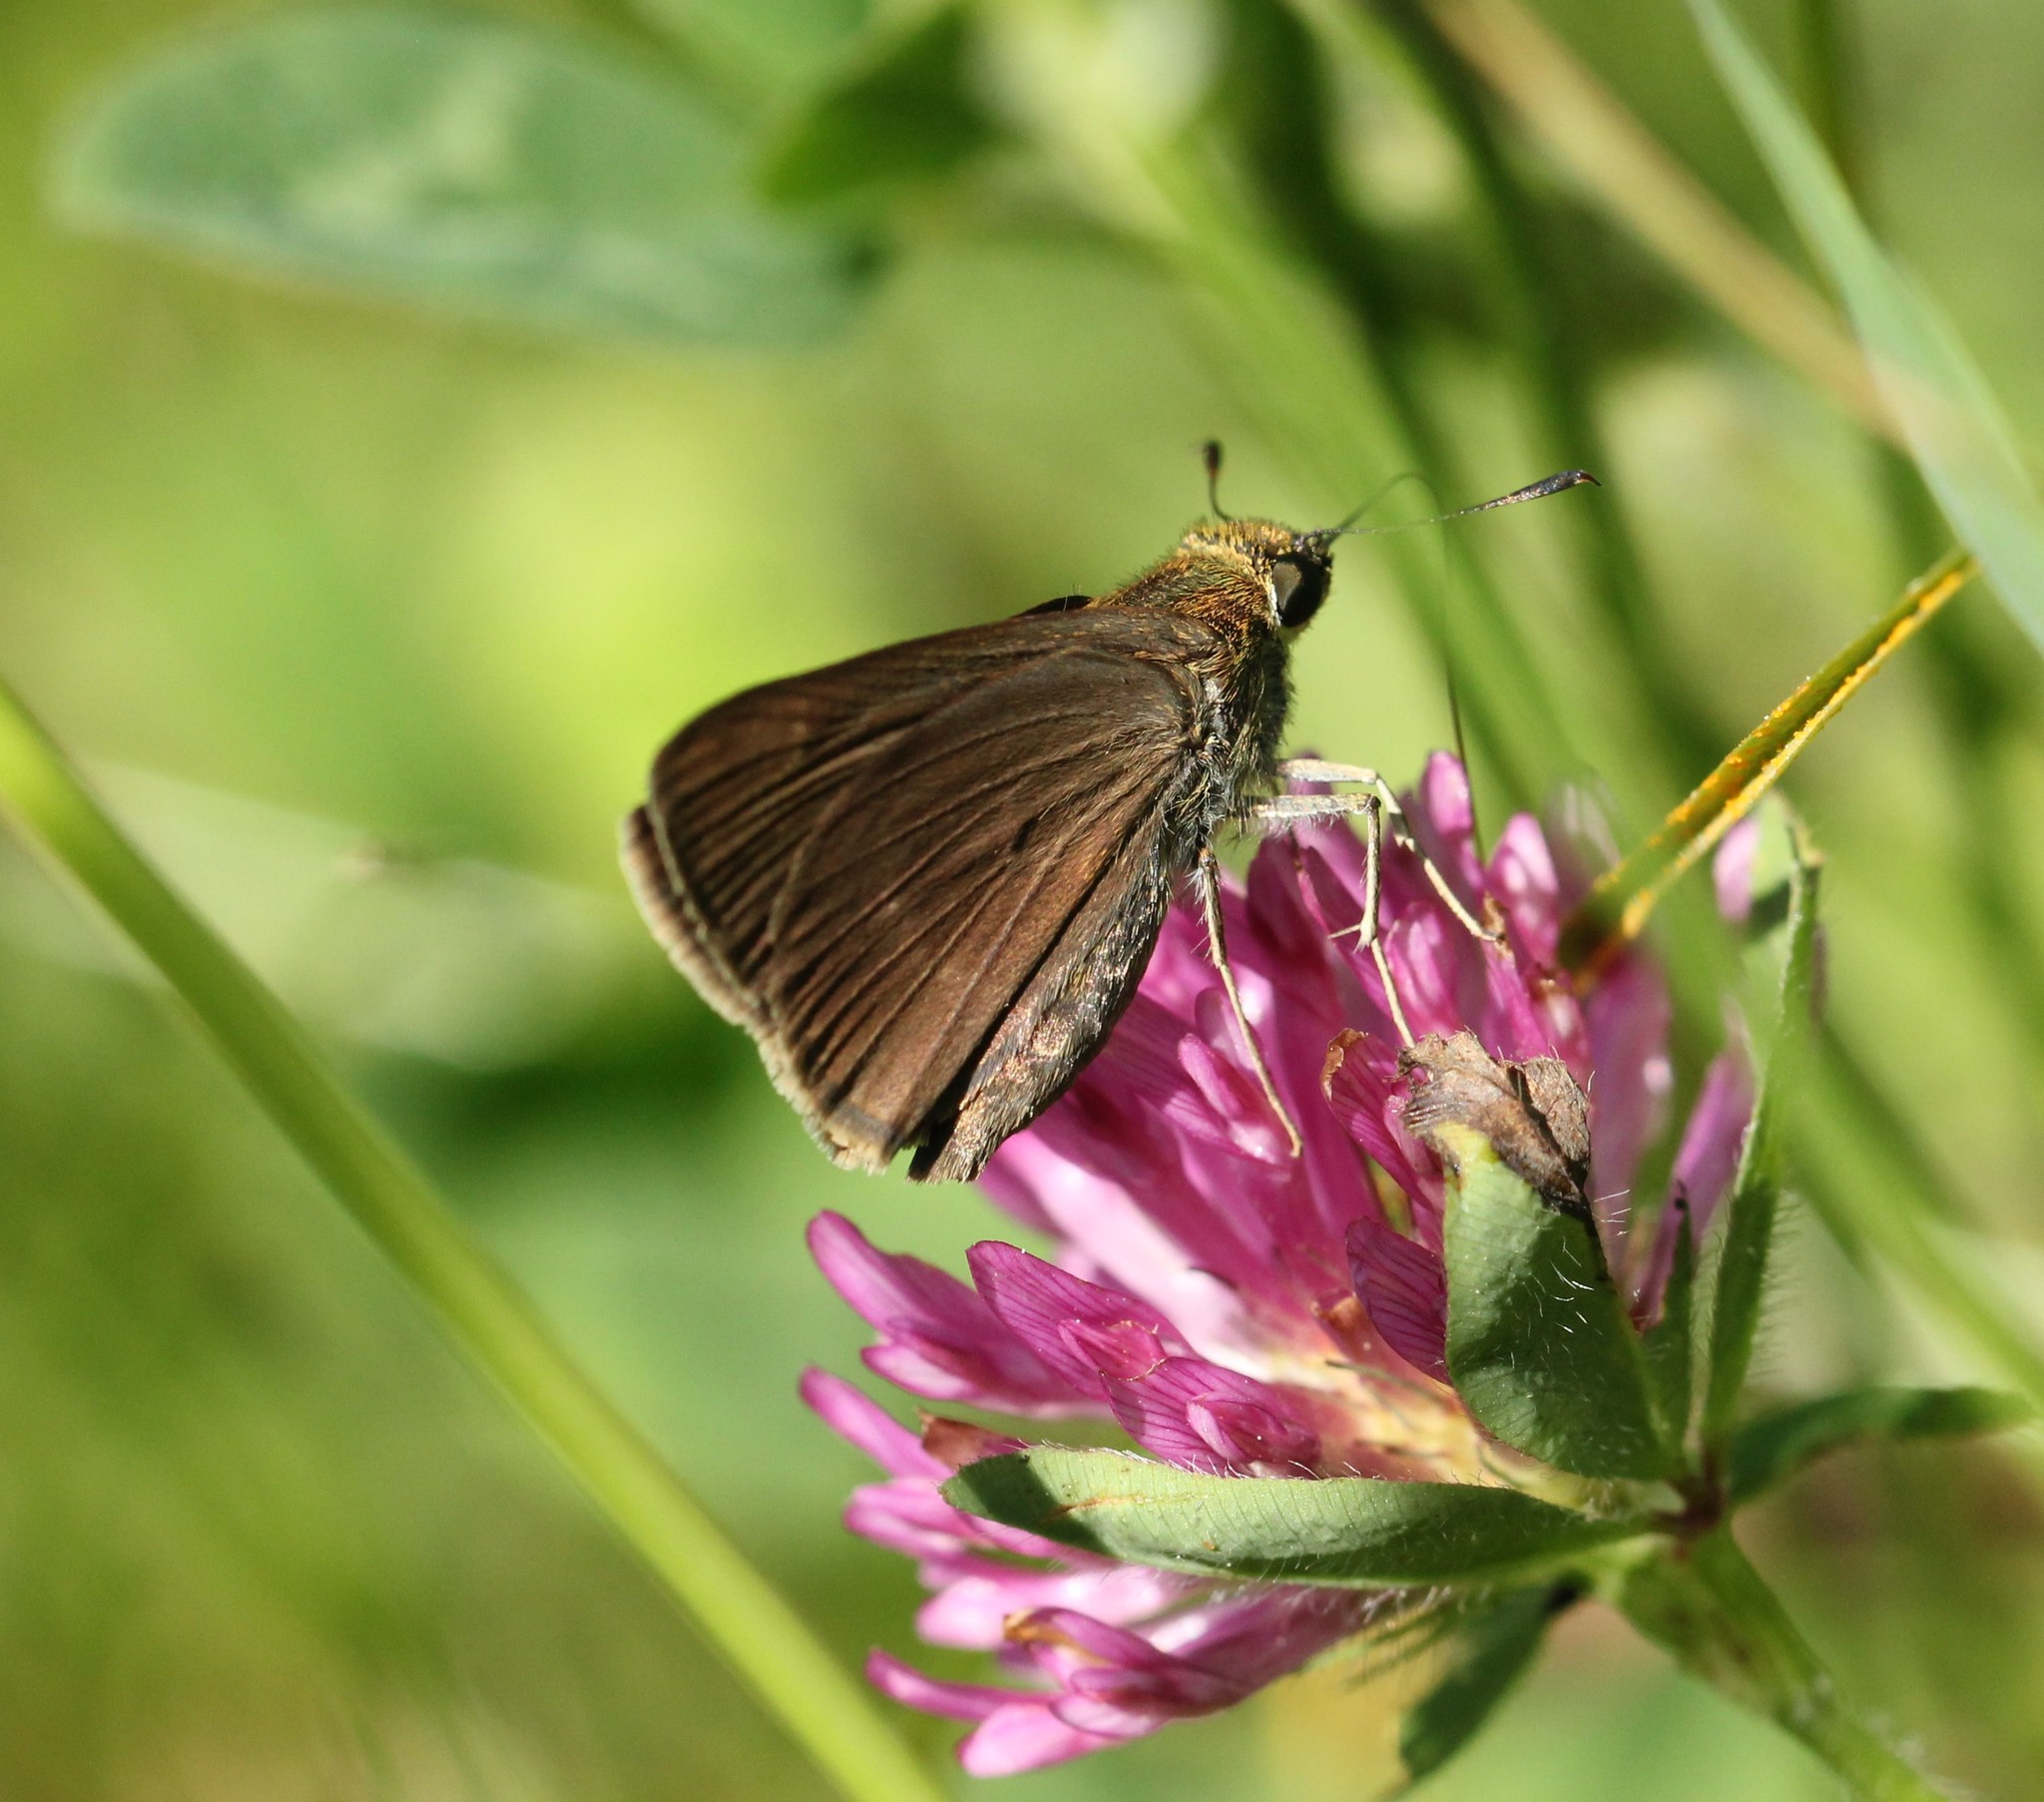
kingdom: Animalia
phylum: Arthropoda
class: Insecta
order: Lepidoptera
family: Hesperiidae
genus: Euphyes
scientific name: Euphyes vestris
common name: Dun skipper
